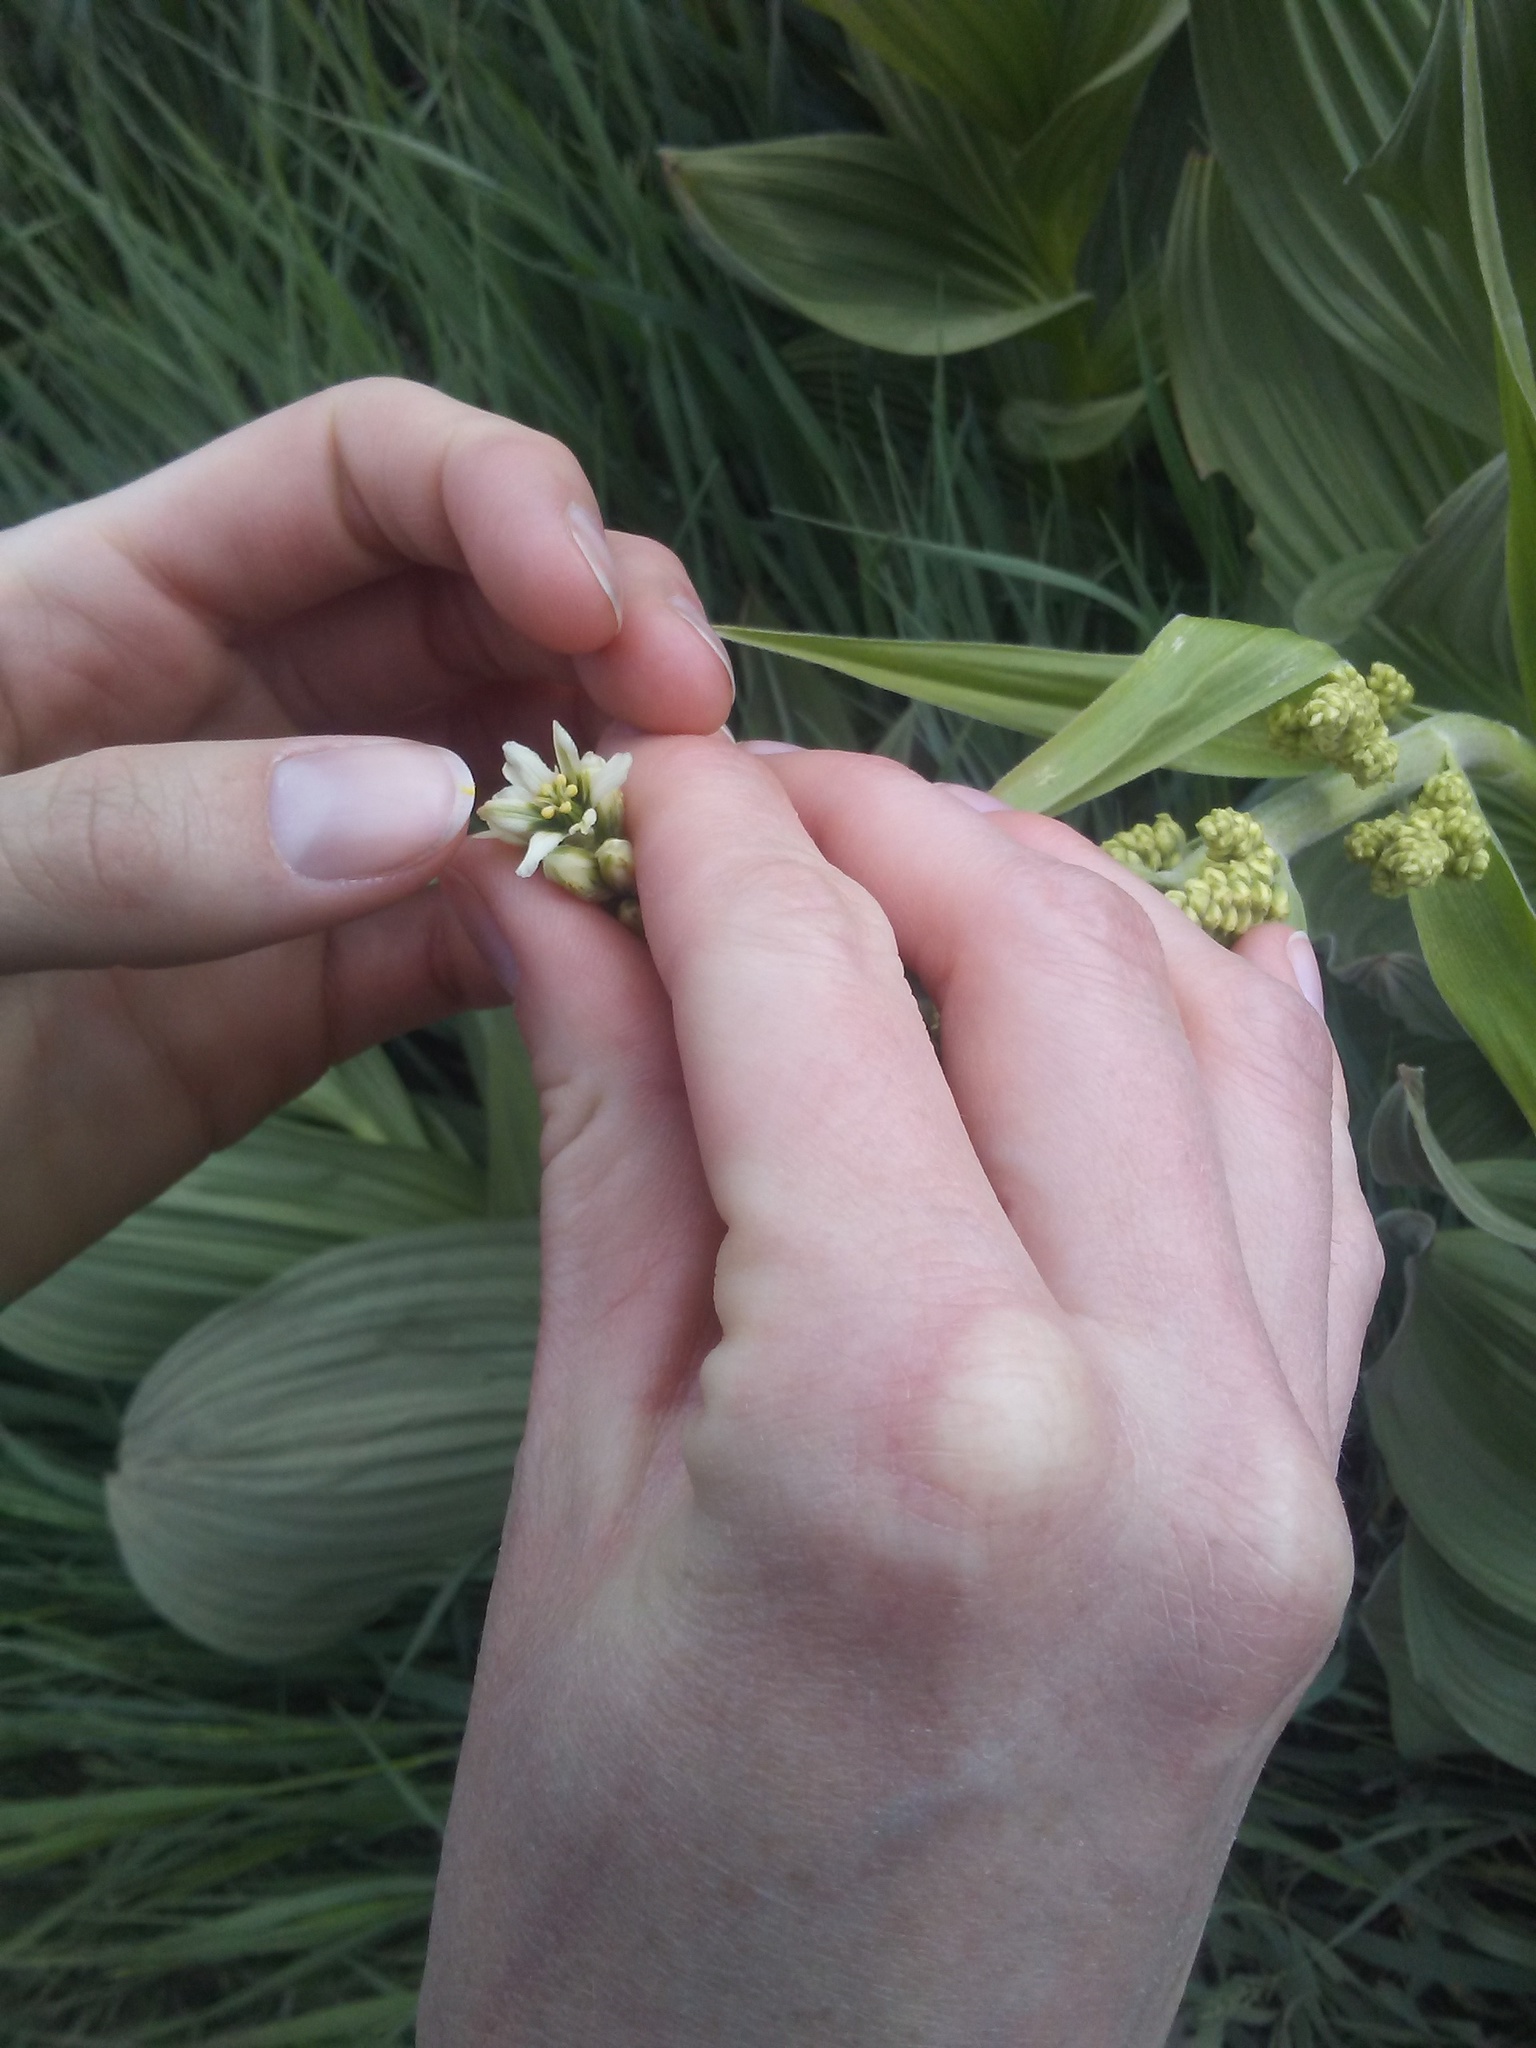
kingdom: Plantae
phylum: Tracheophyta
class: Liliopsida
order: Liliales
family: Melanthiaceae
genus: Veratrum
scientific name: Veratrum californicum
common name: California veratrum
